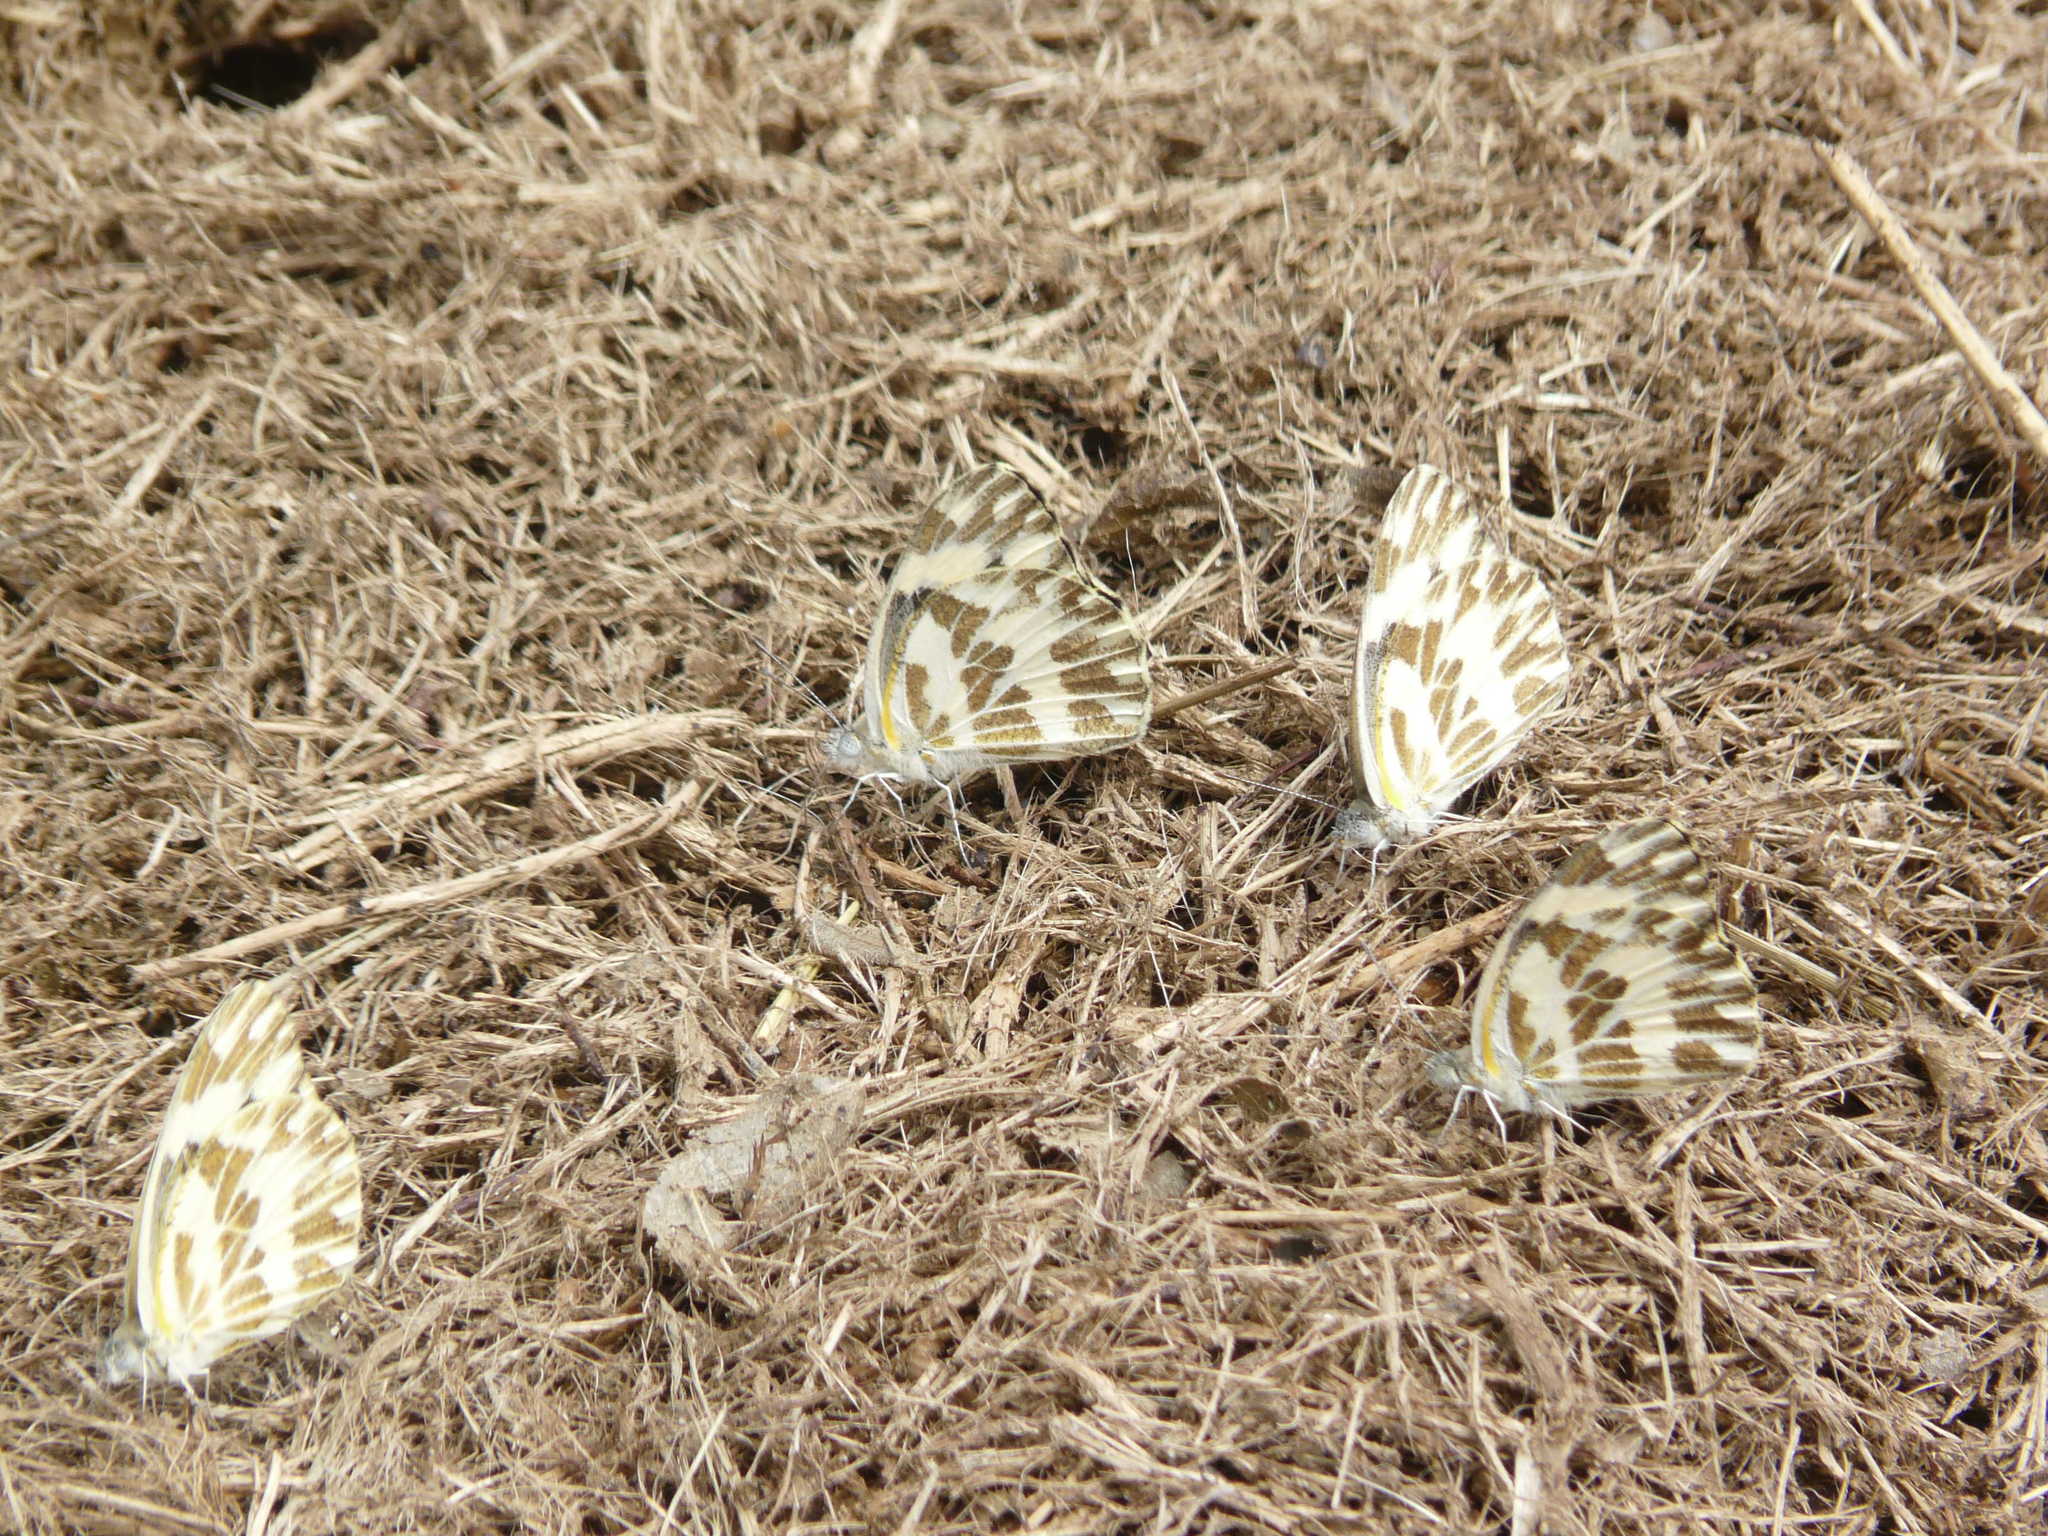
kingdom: Animalia
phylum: Arthropoda
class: Insecta
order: Lepidoptera
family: Pieridae
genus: Pinacopteryx
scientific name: Pinacopteryx eriphia
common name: Zebra white
